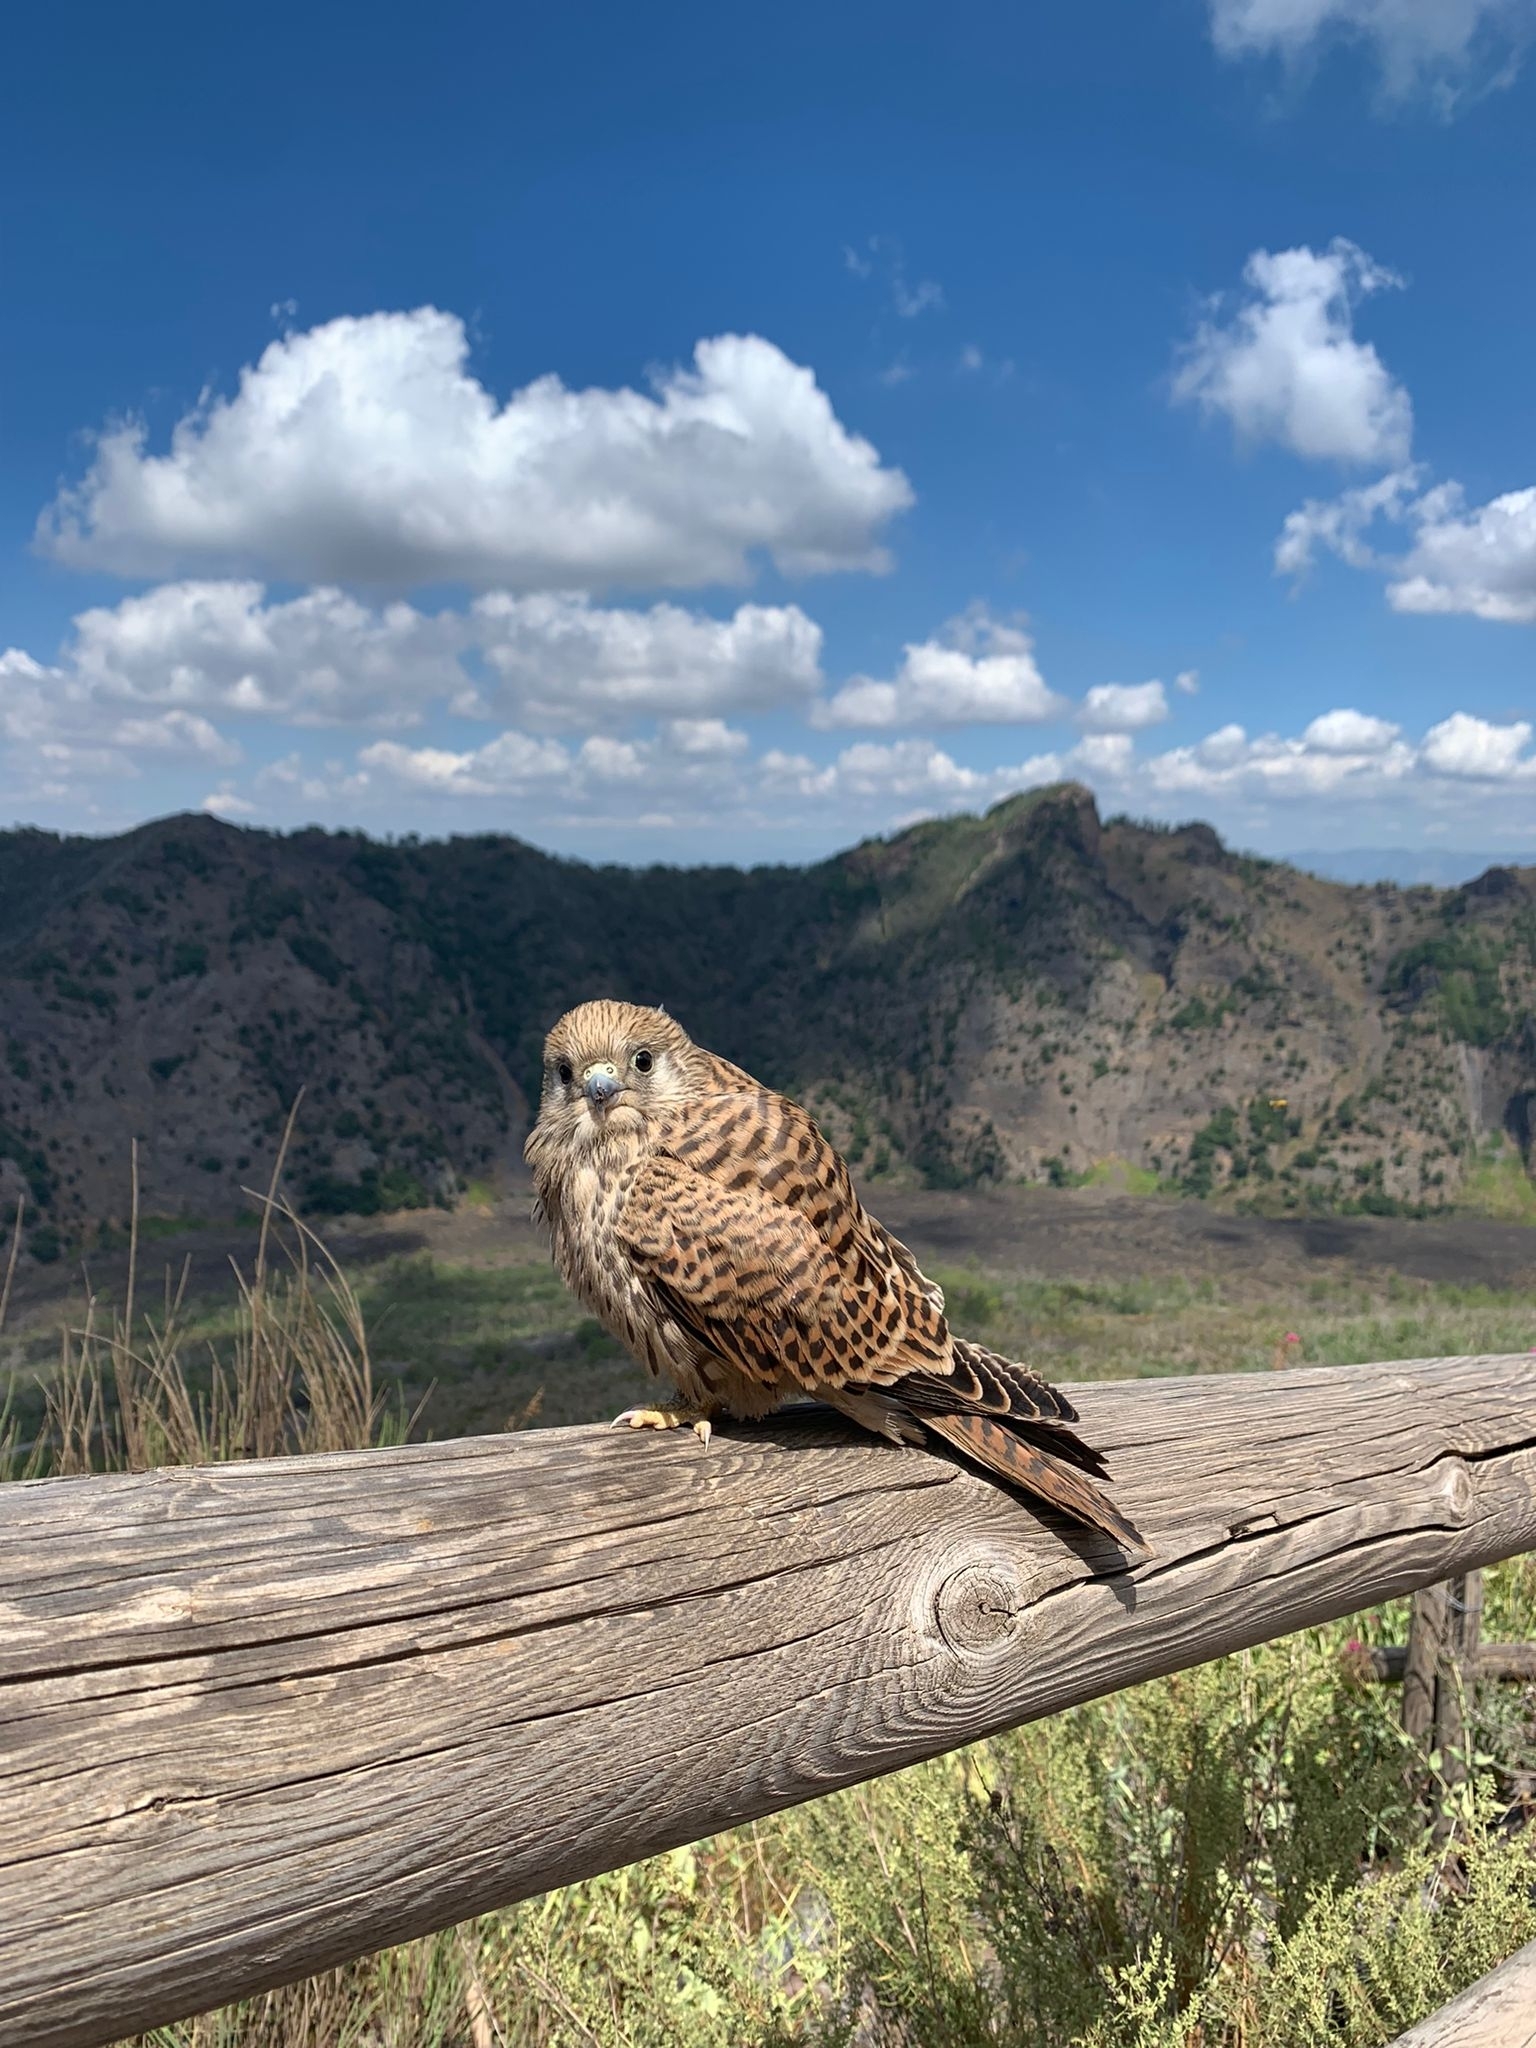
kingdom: Animalia
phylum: Chordata
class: Aves
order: Falconiformes
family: Falconidae
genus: Falco
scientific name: Falco naumanni
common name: Lesser kestrel
